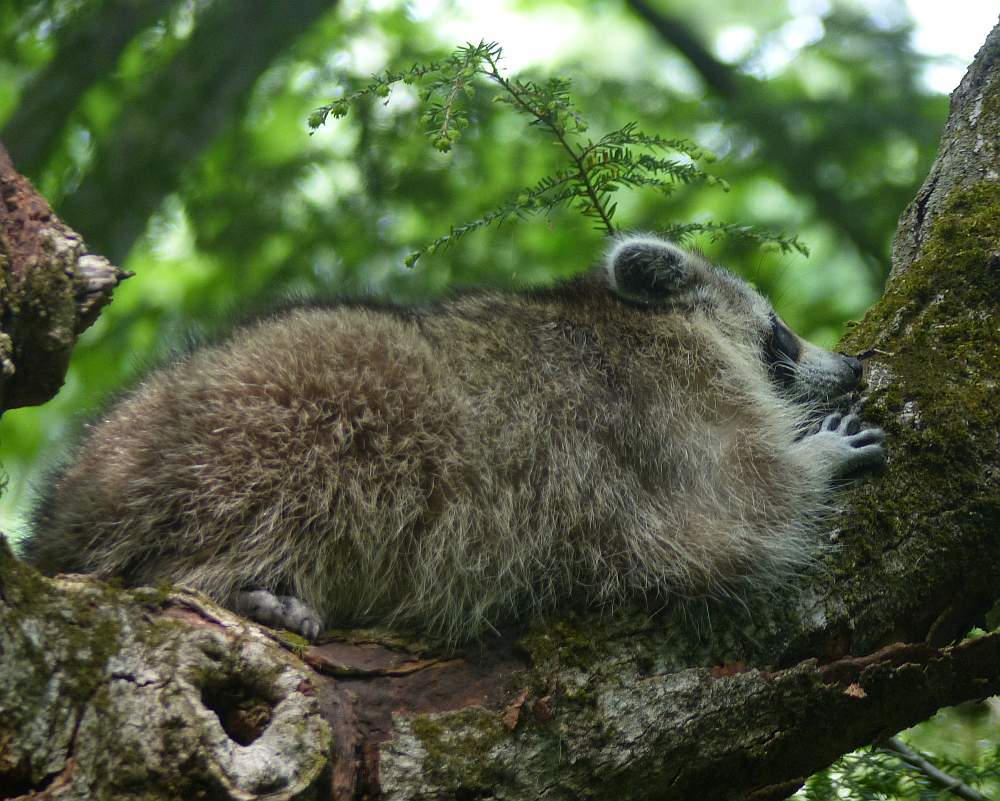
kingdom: Animalia
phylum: Chordata
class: Mammalia
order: Carnivora
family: Procyonidae
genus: Procyon
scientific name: Procyon lotor
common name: Raccoon
